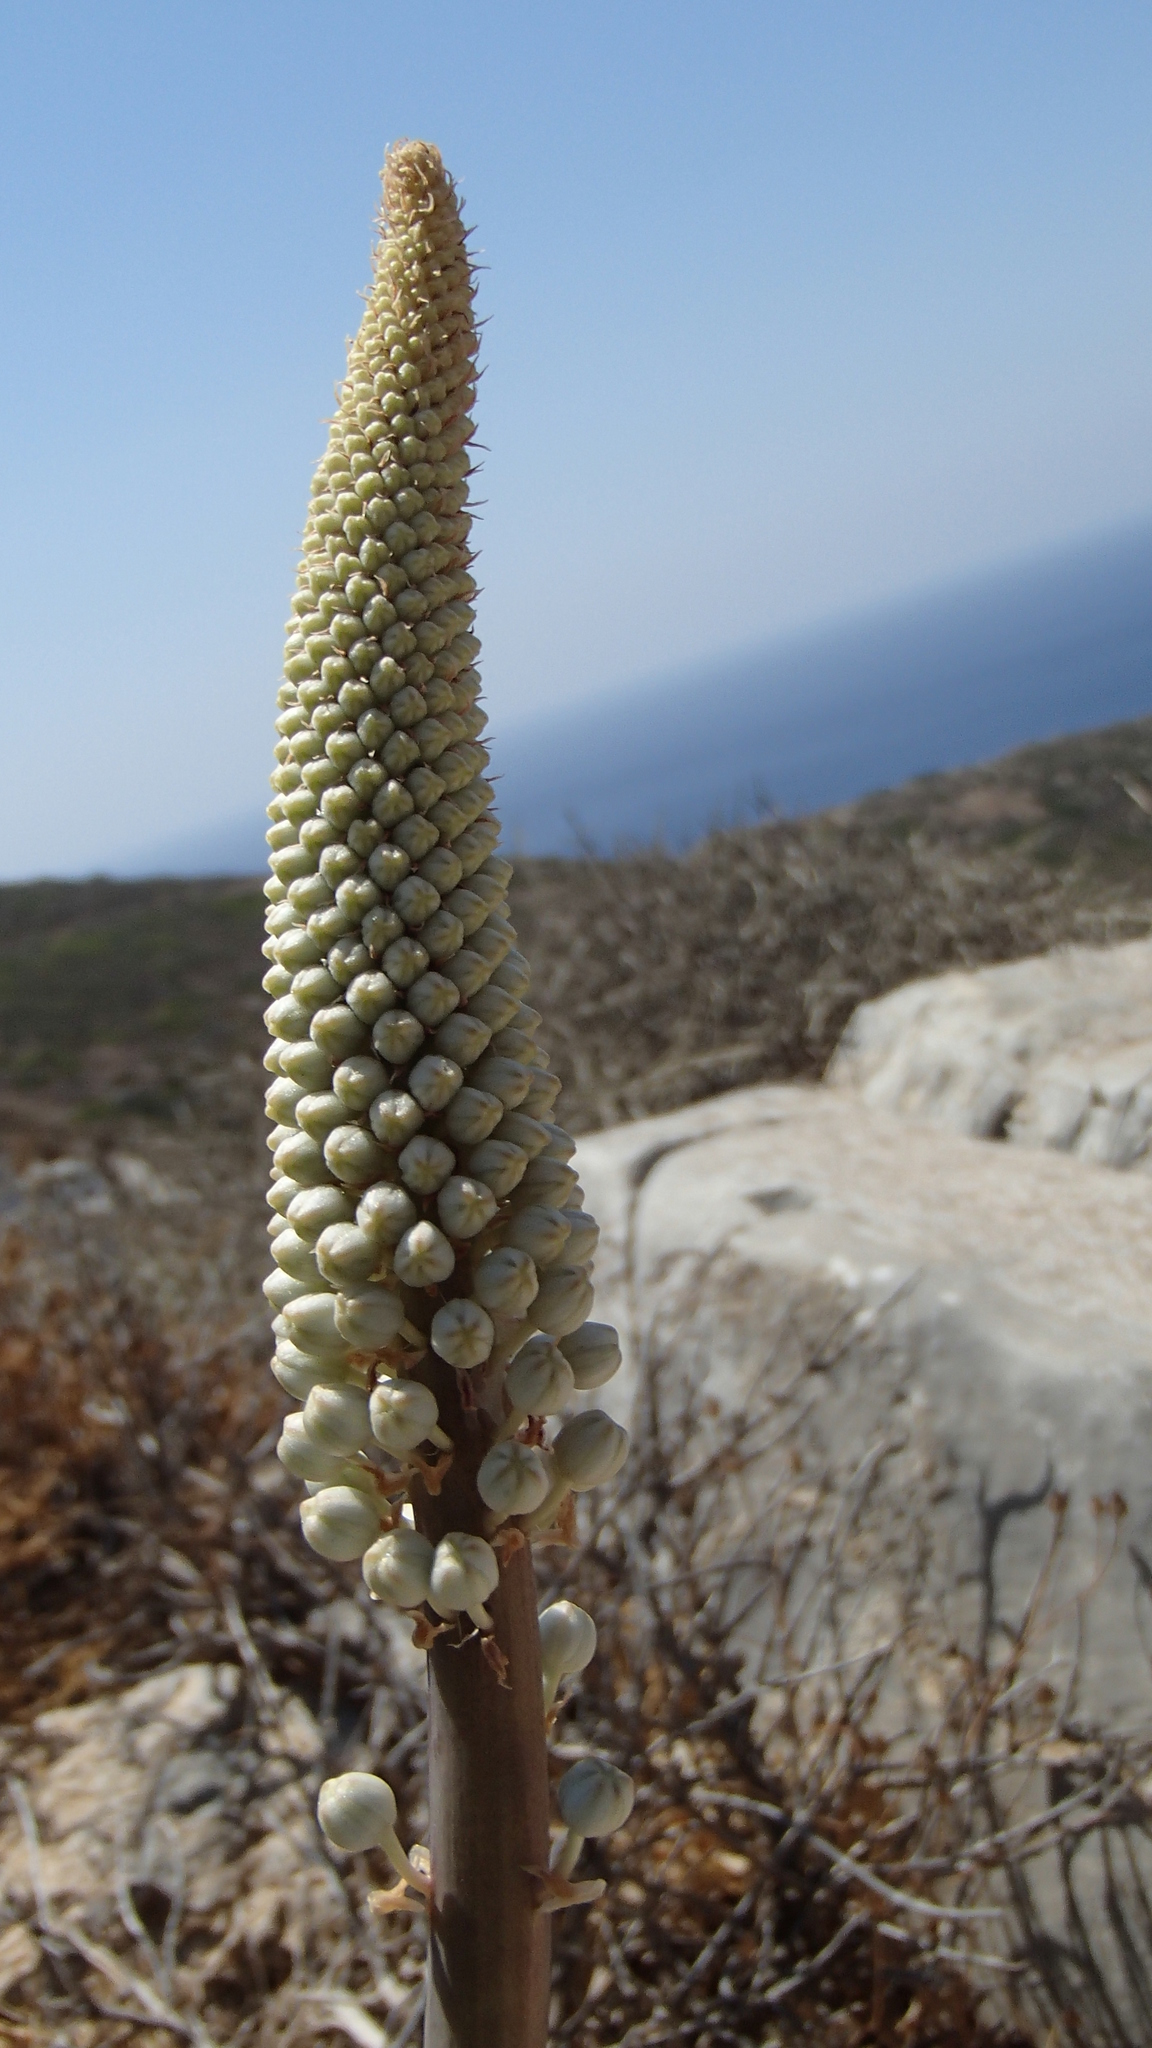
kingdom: Plantae
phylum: Tracheophyta
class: Liliopsida
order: Asparagales
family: Asparagaceae
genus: Drimia
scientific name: Drimia numidica
